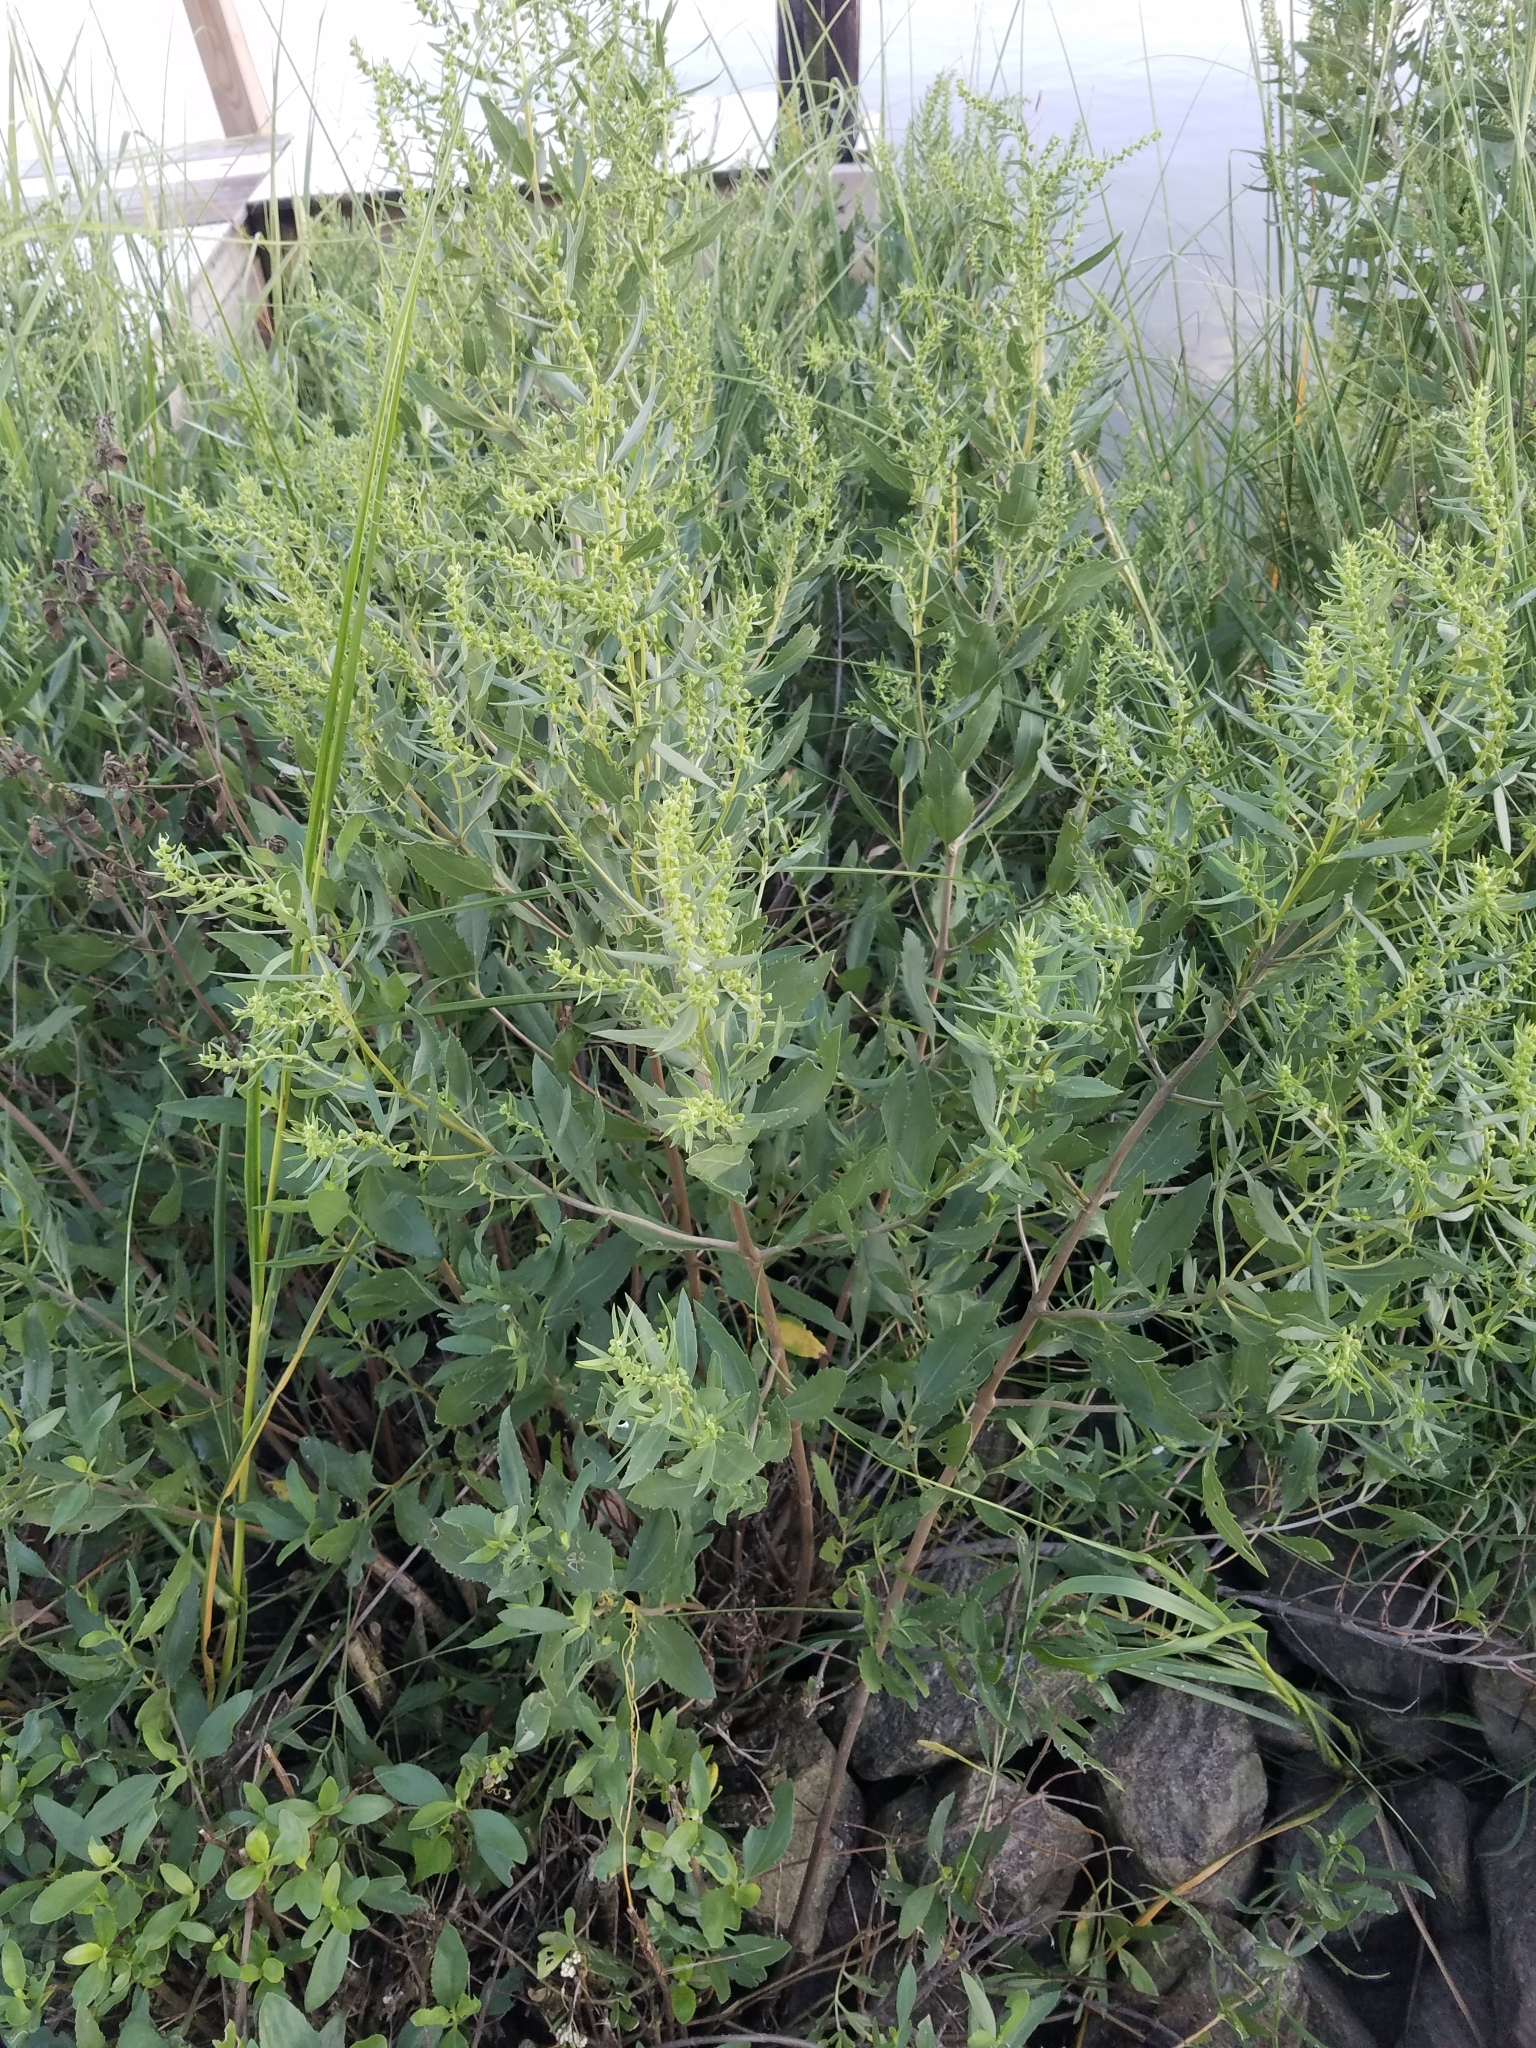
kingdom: Plantae
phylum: Tracheophyta
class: Magnoliopsida
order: Asterales
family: Asteraceae
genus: Iva
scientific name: Iva frutescens
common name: Big-leaved marsh-elder
